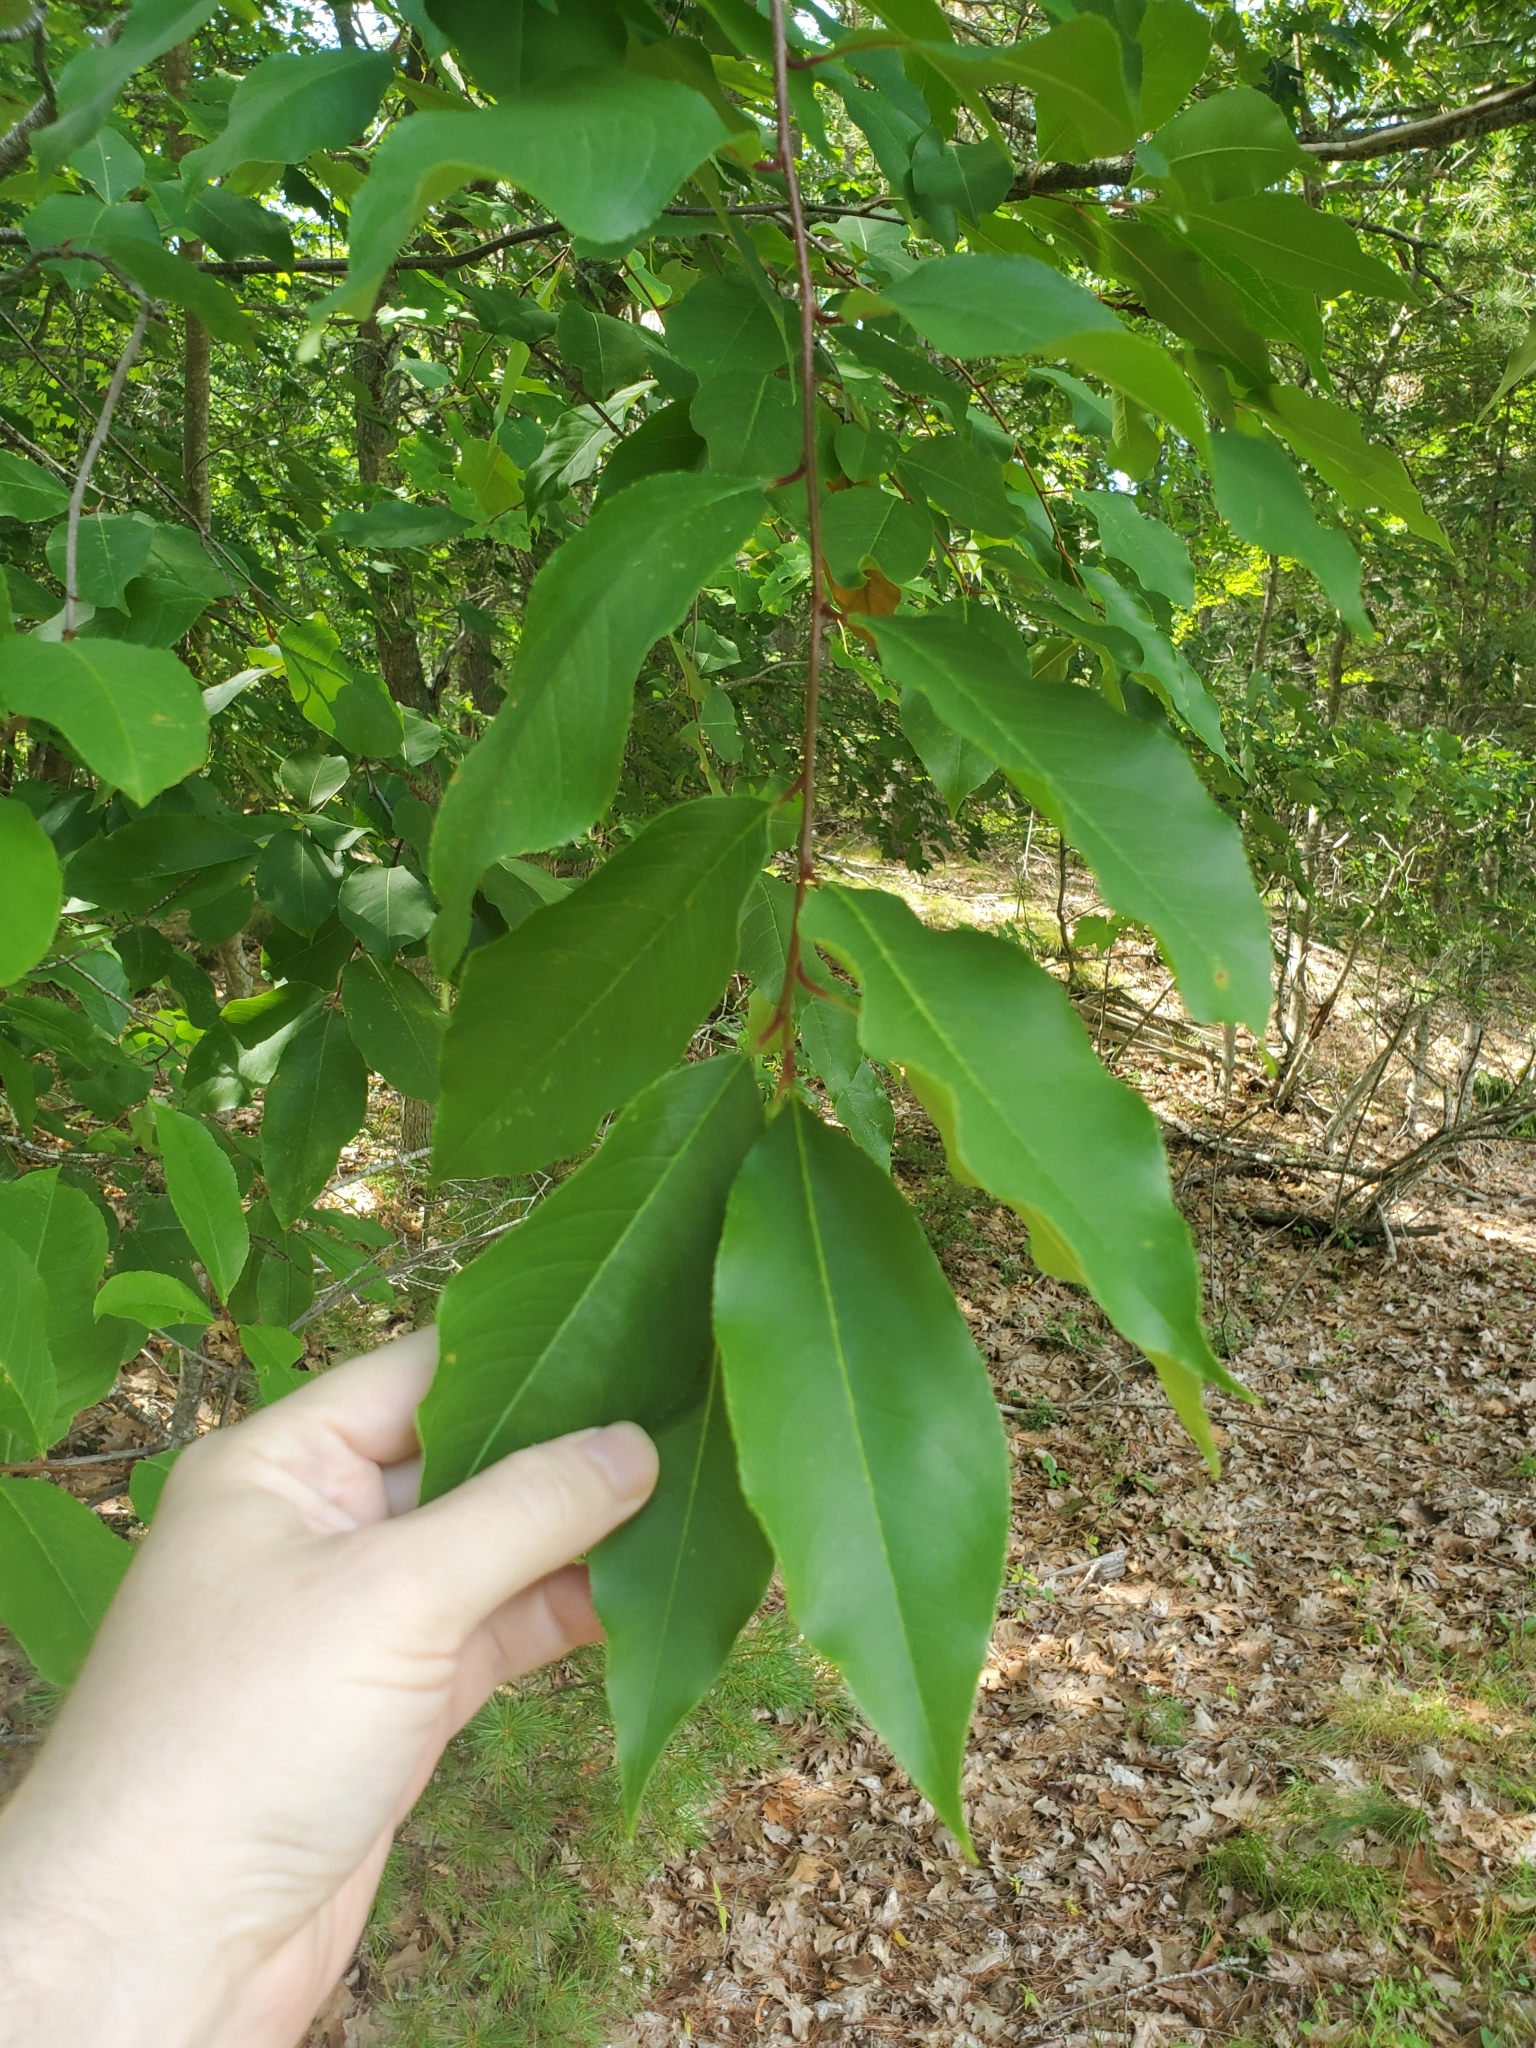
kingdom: Plantae
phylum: Tracheophyta
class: Magnoliopsida
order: Rosales
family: Rosaceae
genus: Prunus
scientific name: Prunus serotina
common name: Black cherry
